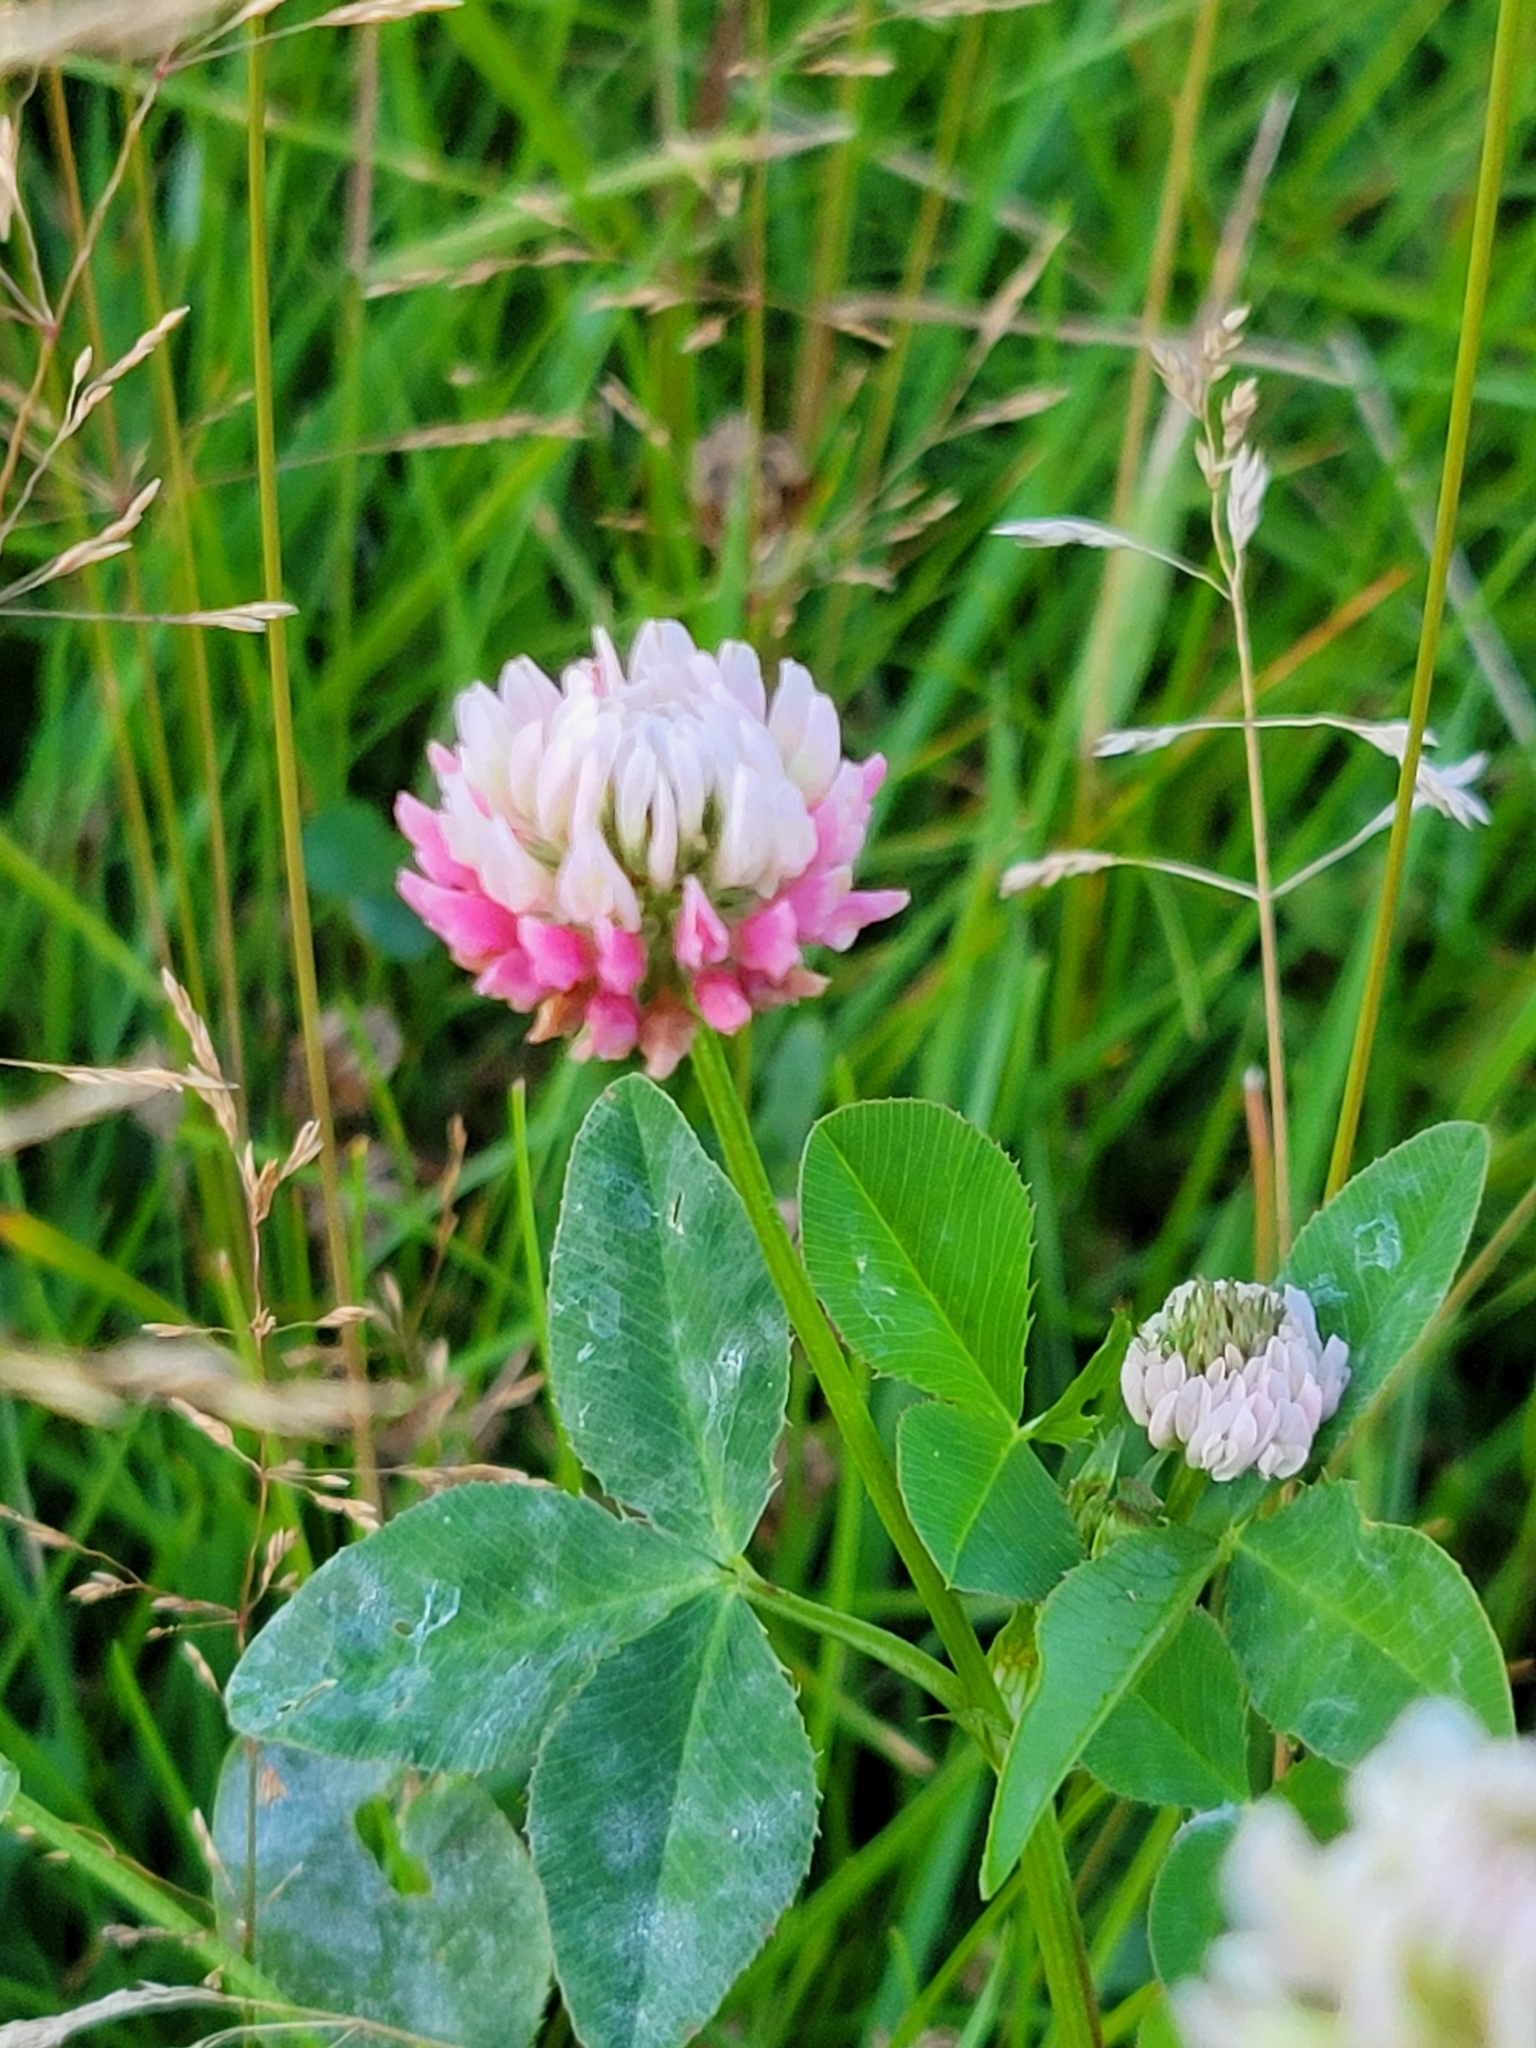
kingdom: Plantae
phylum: Tracheophyta
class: Magnoliopsida
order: Fabales
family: Fabaceae
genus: Trifolium
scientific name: Trifolium hybridum
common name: Alsike clover
